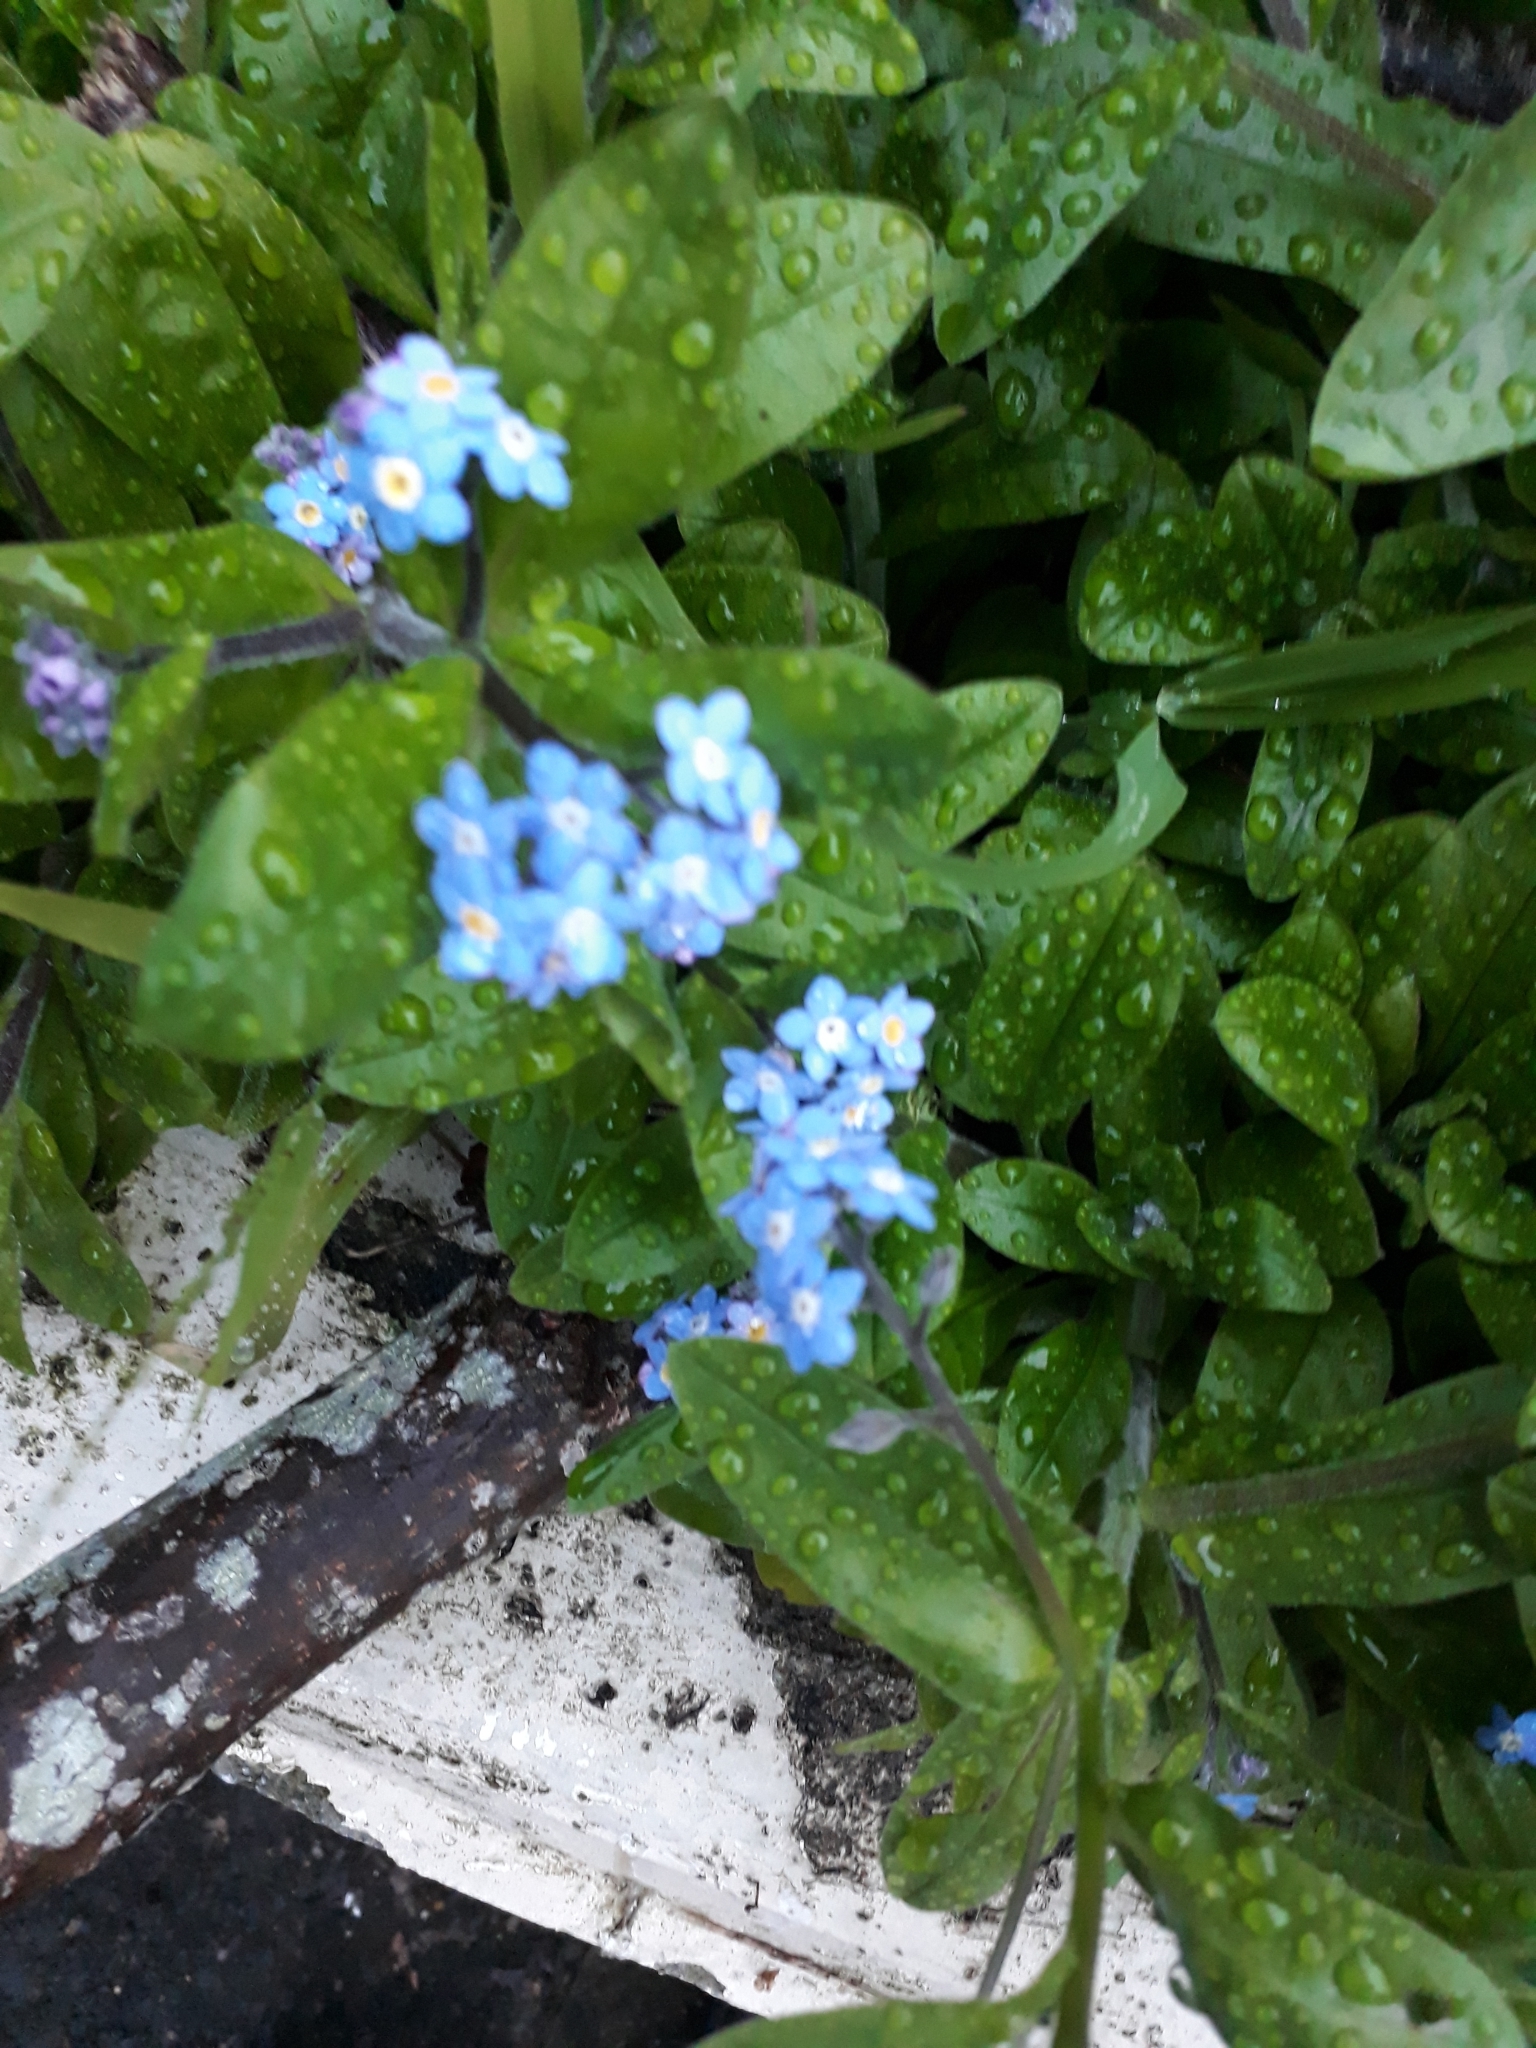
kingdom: Plantae
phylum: Tracheophyta
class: Magnoliopsida
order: Boraginales
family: Boraginaceae
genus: Myosotis
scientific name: Myosotis sylvatica
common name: Wood forget-me-not
